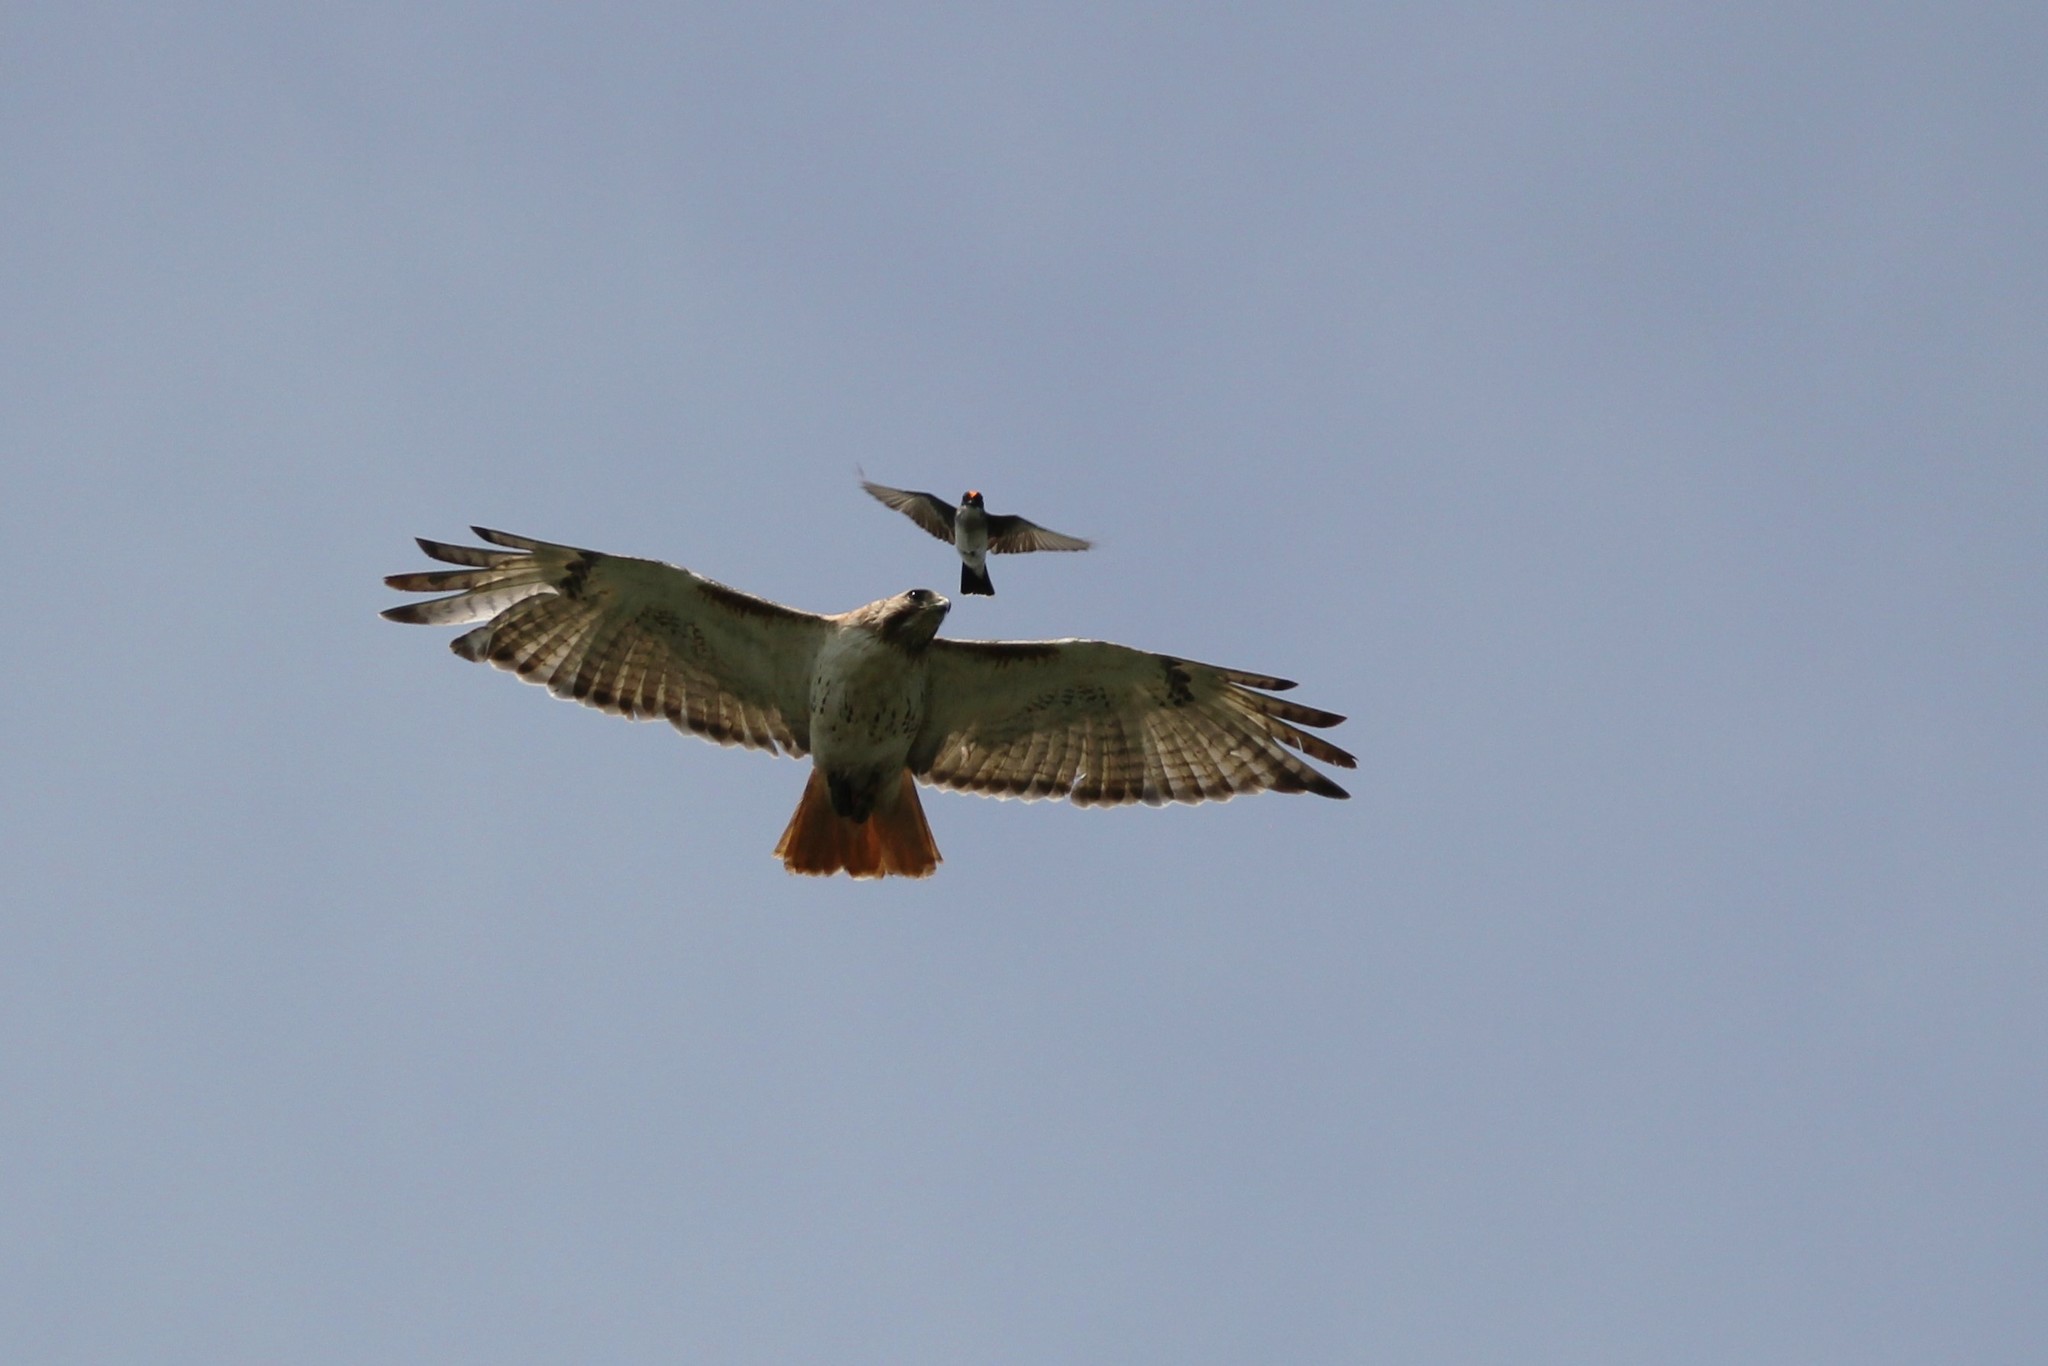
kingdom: Animalia
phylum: Chordata
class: Aves
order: Passeriformes
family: Tyrannidae
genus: Tyrannus
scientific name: Tyrannus tyrannus
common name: Eastern kingbird
